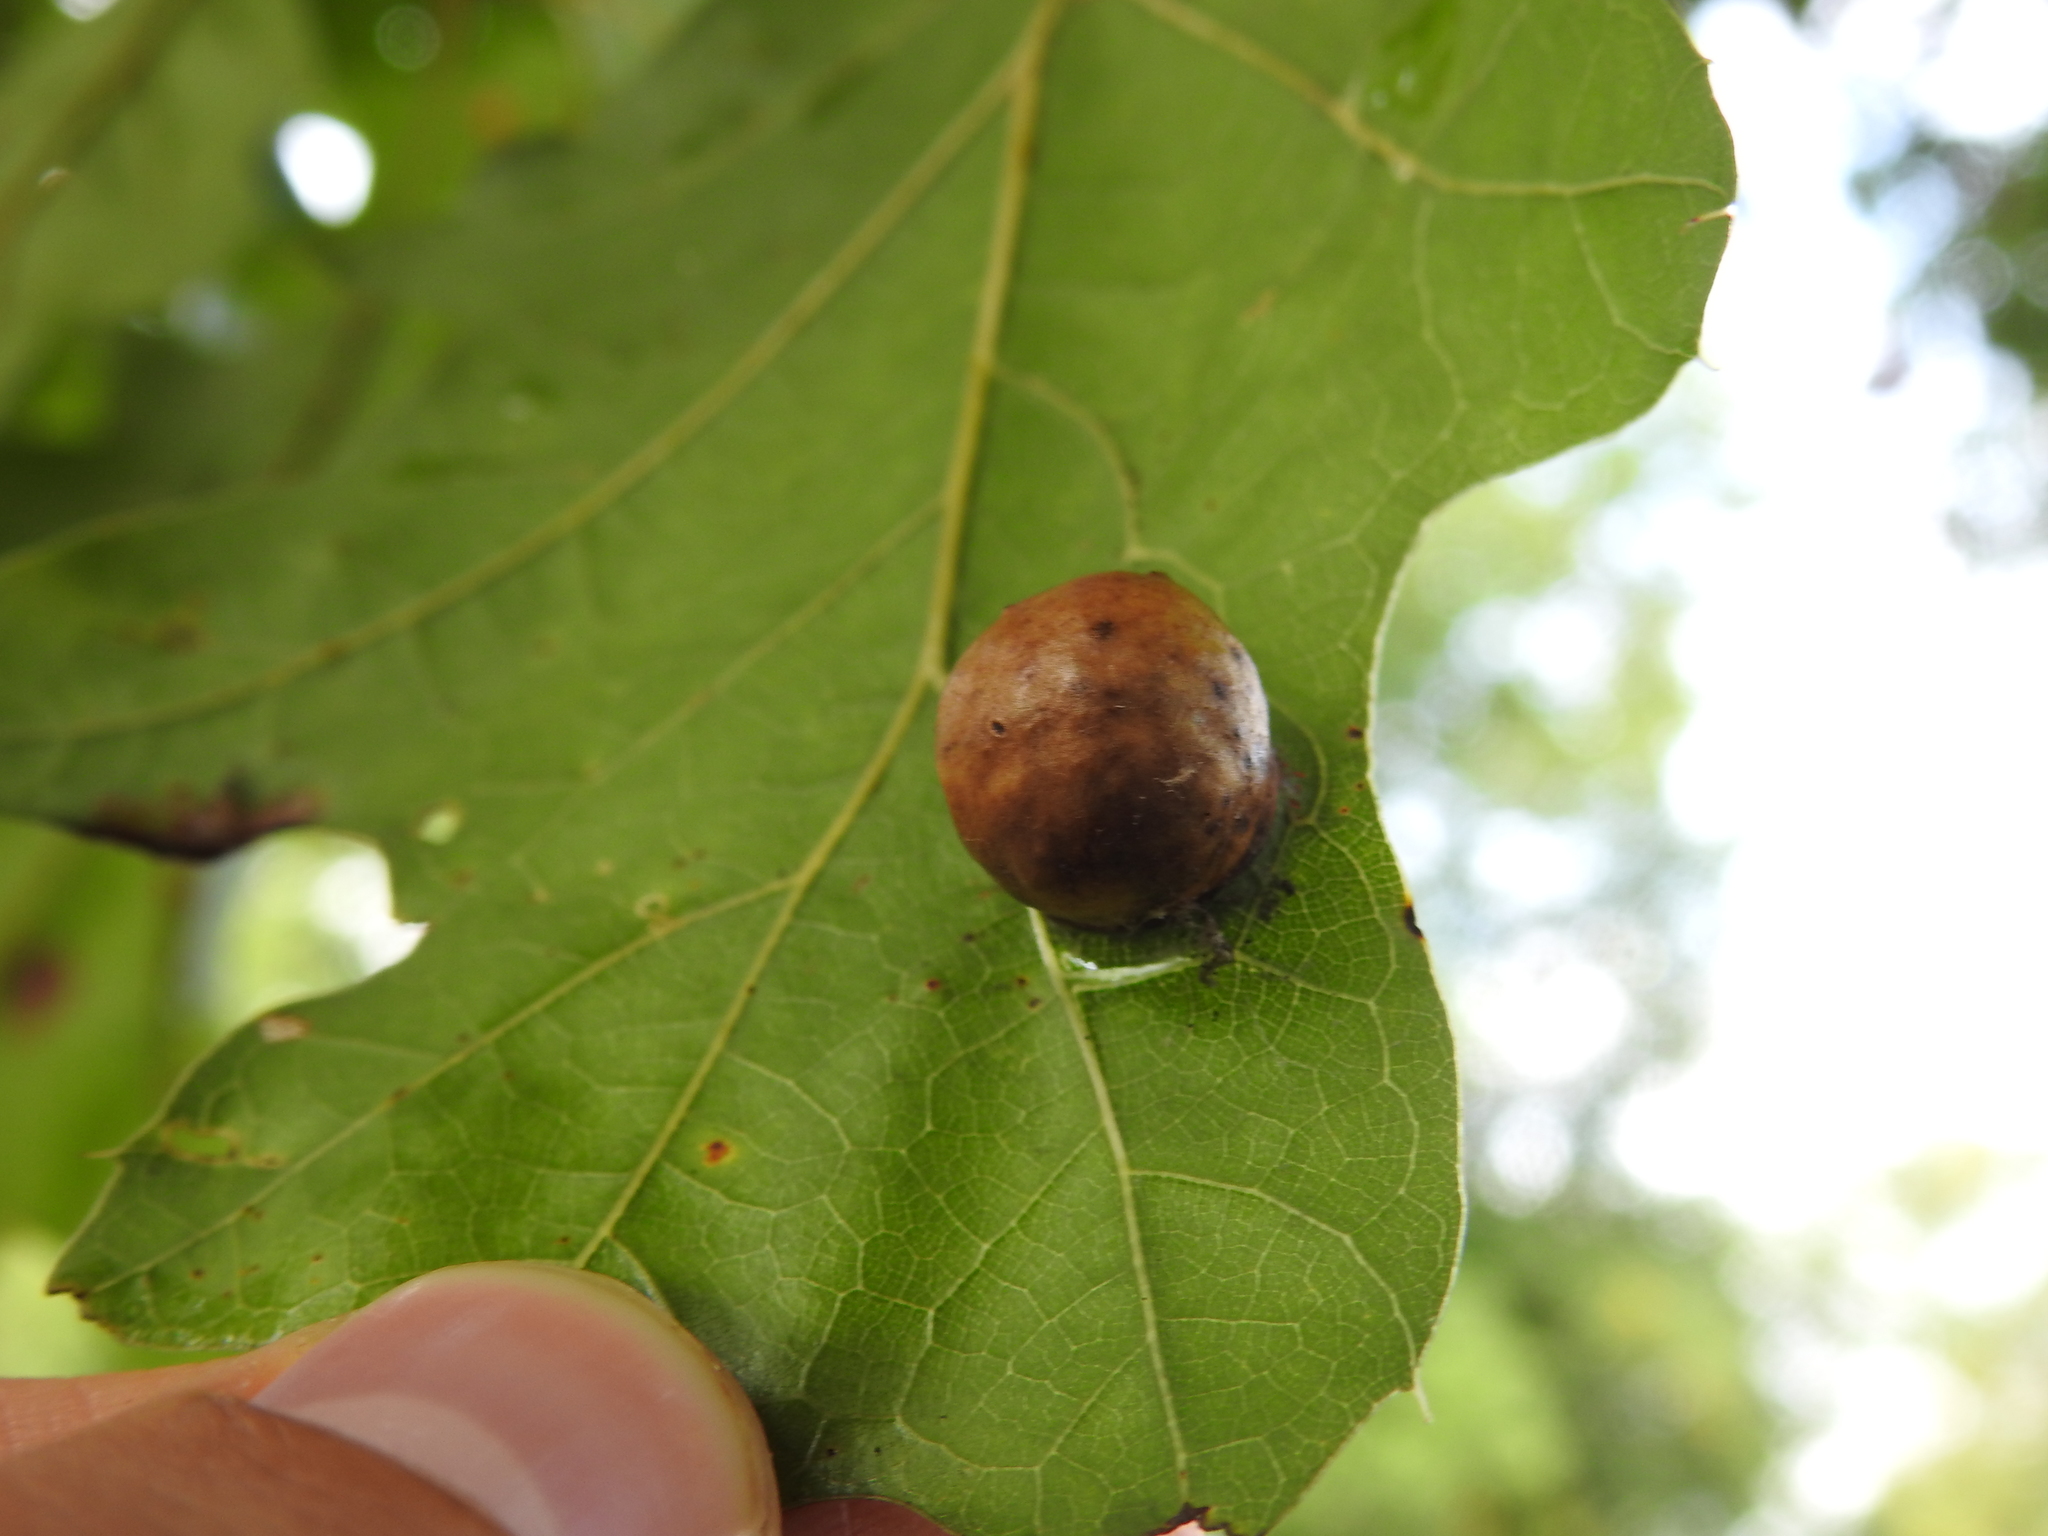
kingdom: Animalia
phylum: Arthropoda
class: Insecta
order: Hymenoptera
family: Cynipidae
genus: Amphibolips
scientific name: Amphibolips
